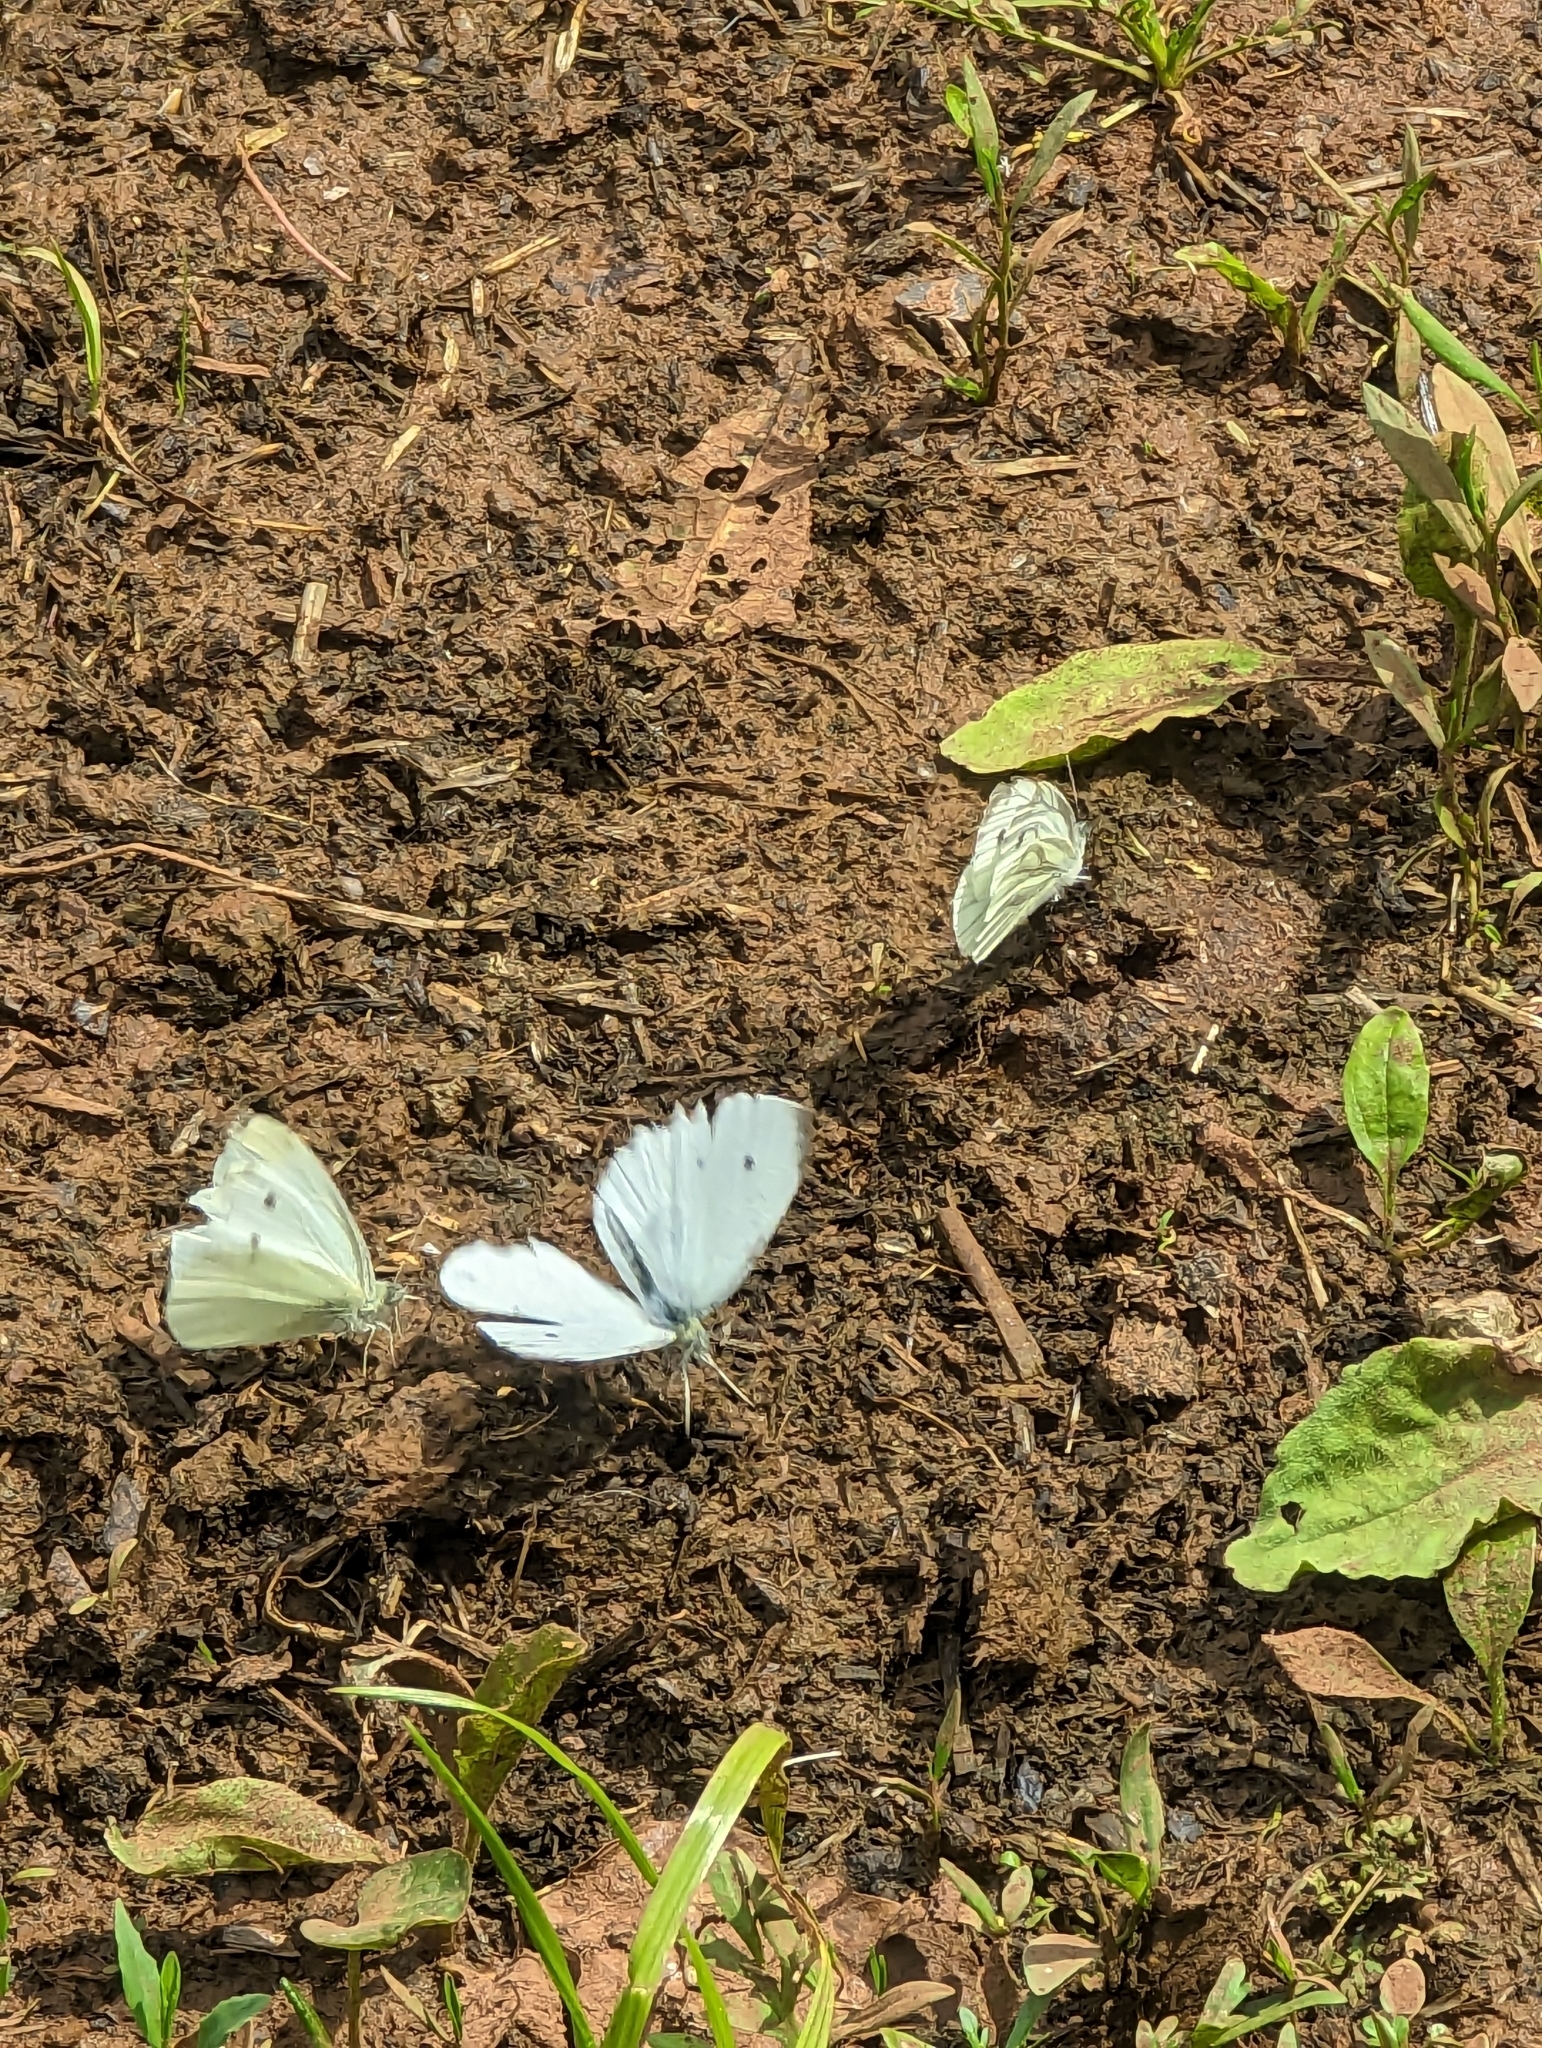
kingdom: Animalia
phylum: Arthropoda
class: Insecta
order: Lepidoptera
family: Pieridae
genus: Pieris
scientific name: Pieris napi
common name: Green-veined white
